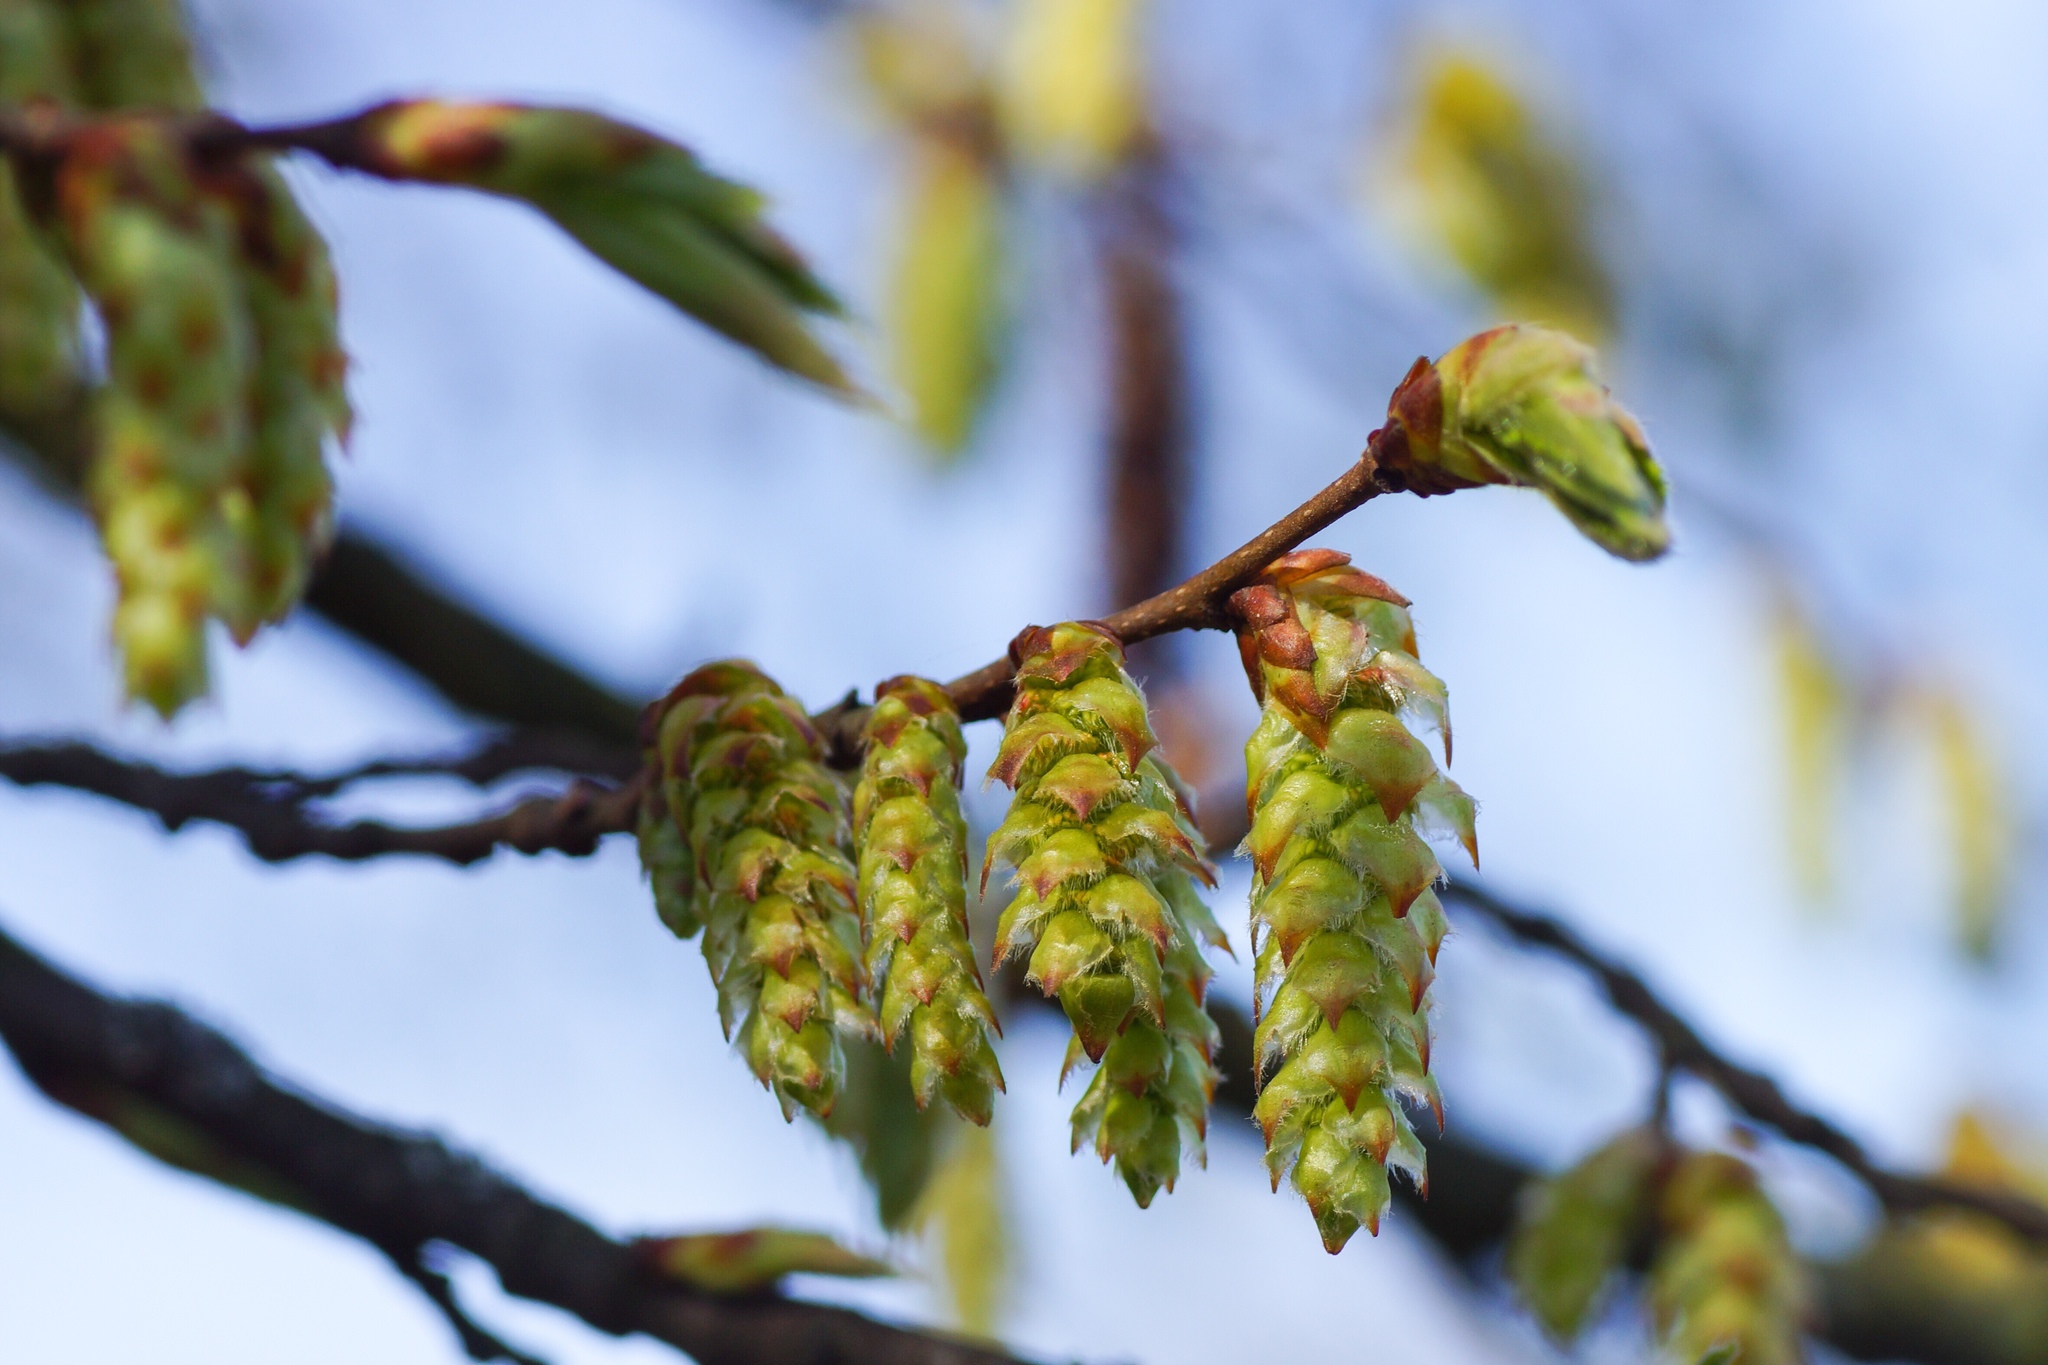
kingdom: Plantae
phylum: Tracheophyta
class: Magnoliopsida
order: Fagales
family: Betulaceae
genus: Carpinus
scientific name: Carpinus betulus
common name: Hornbeam
